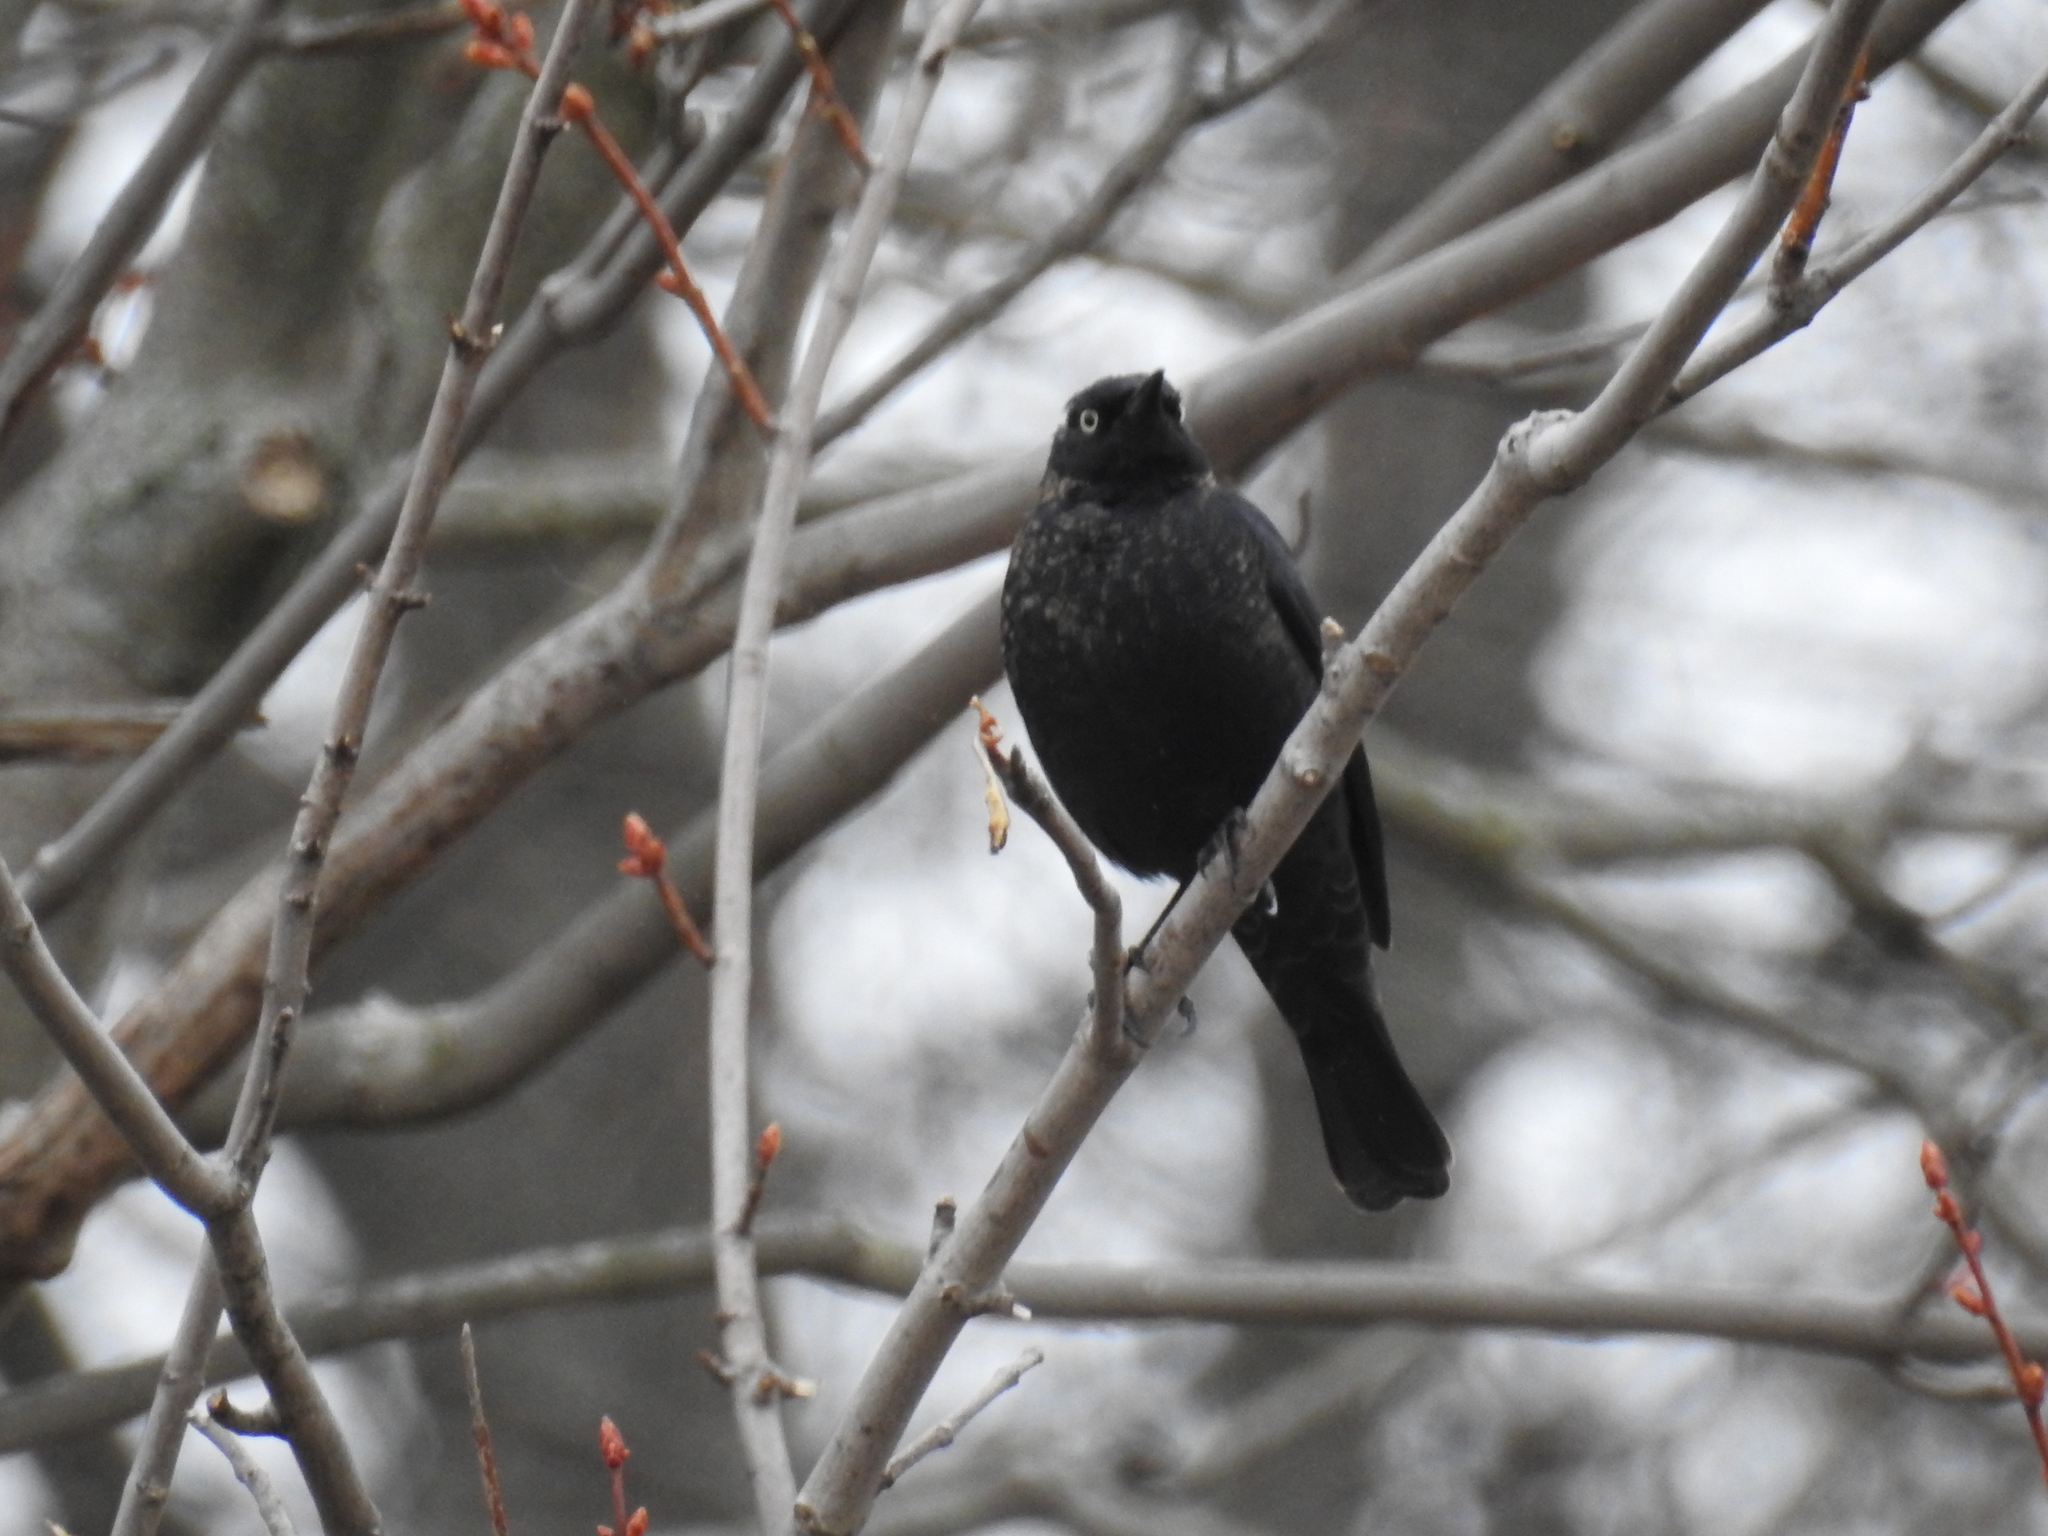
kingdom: Animalia
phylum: Chordata
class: Aves
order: Passeriformes
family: Icteridae
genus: Euphagus
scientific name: Euphagus carolinus
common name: Rusty blackbird
